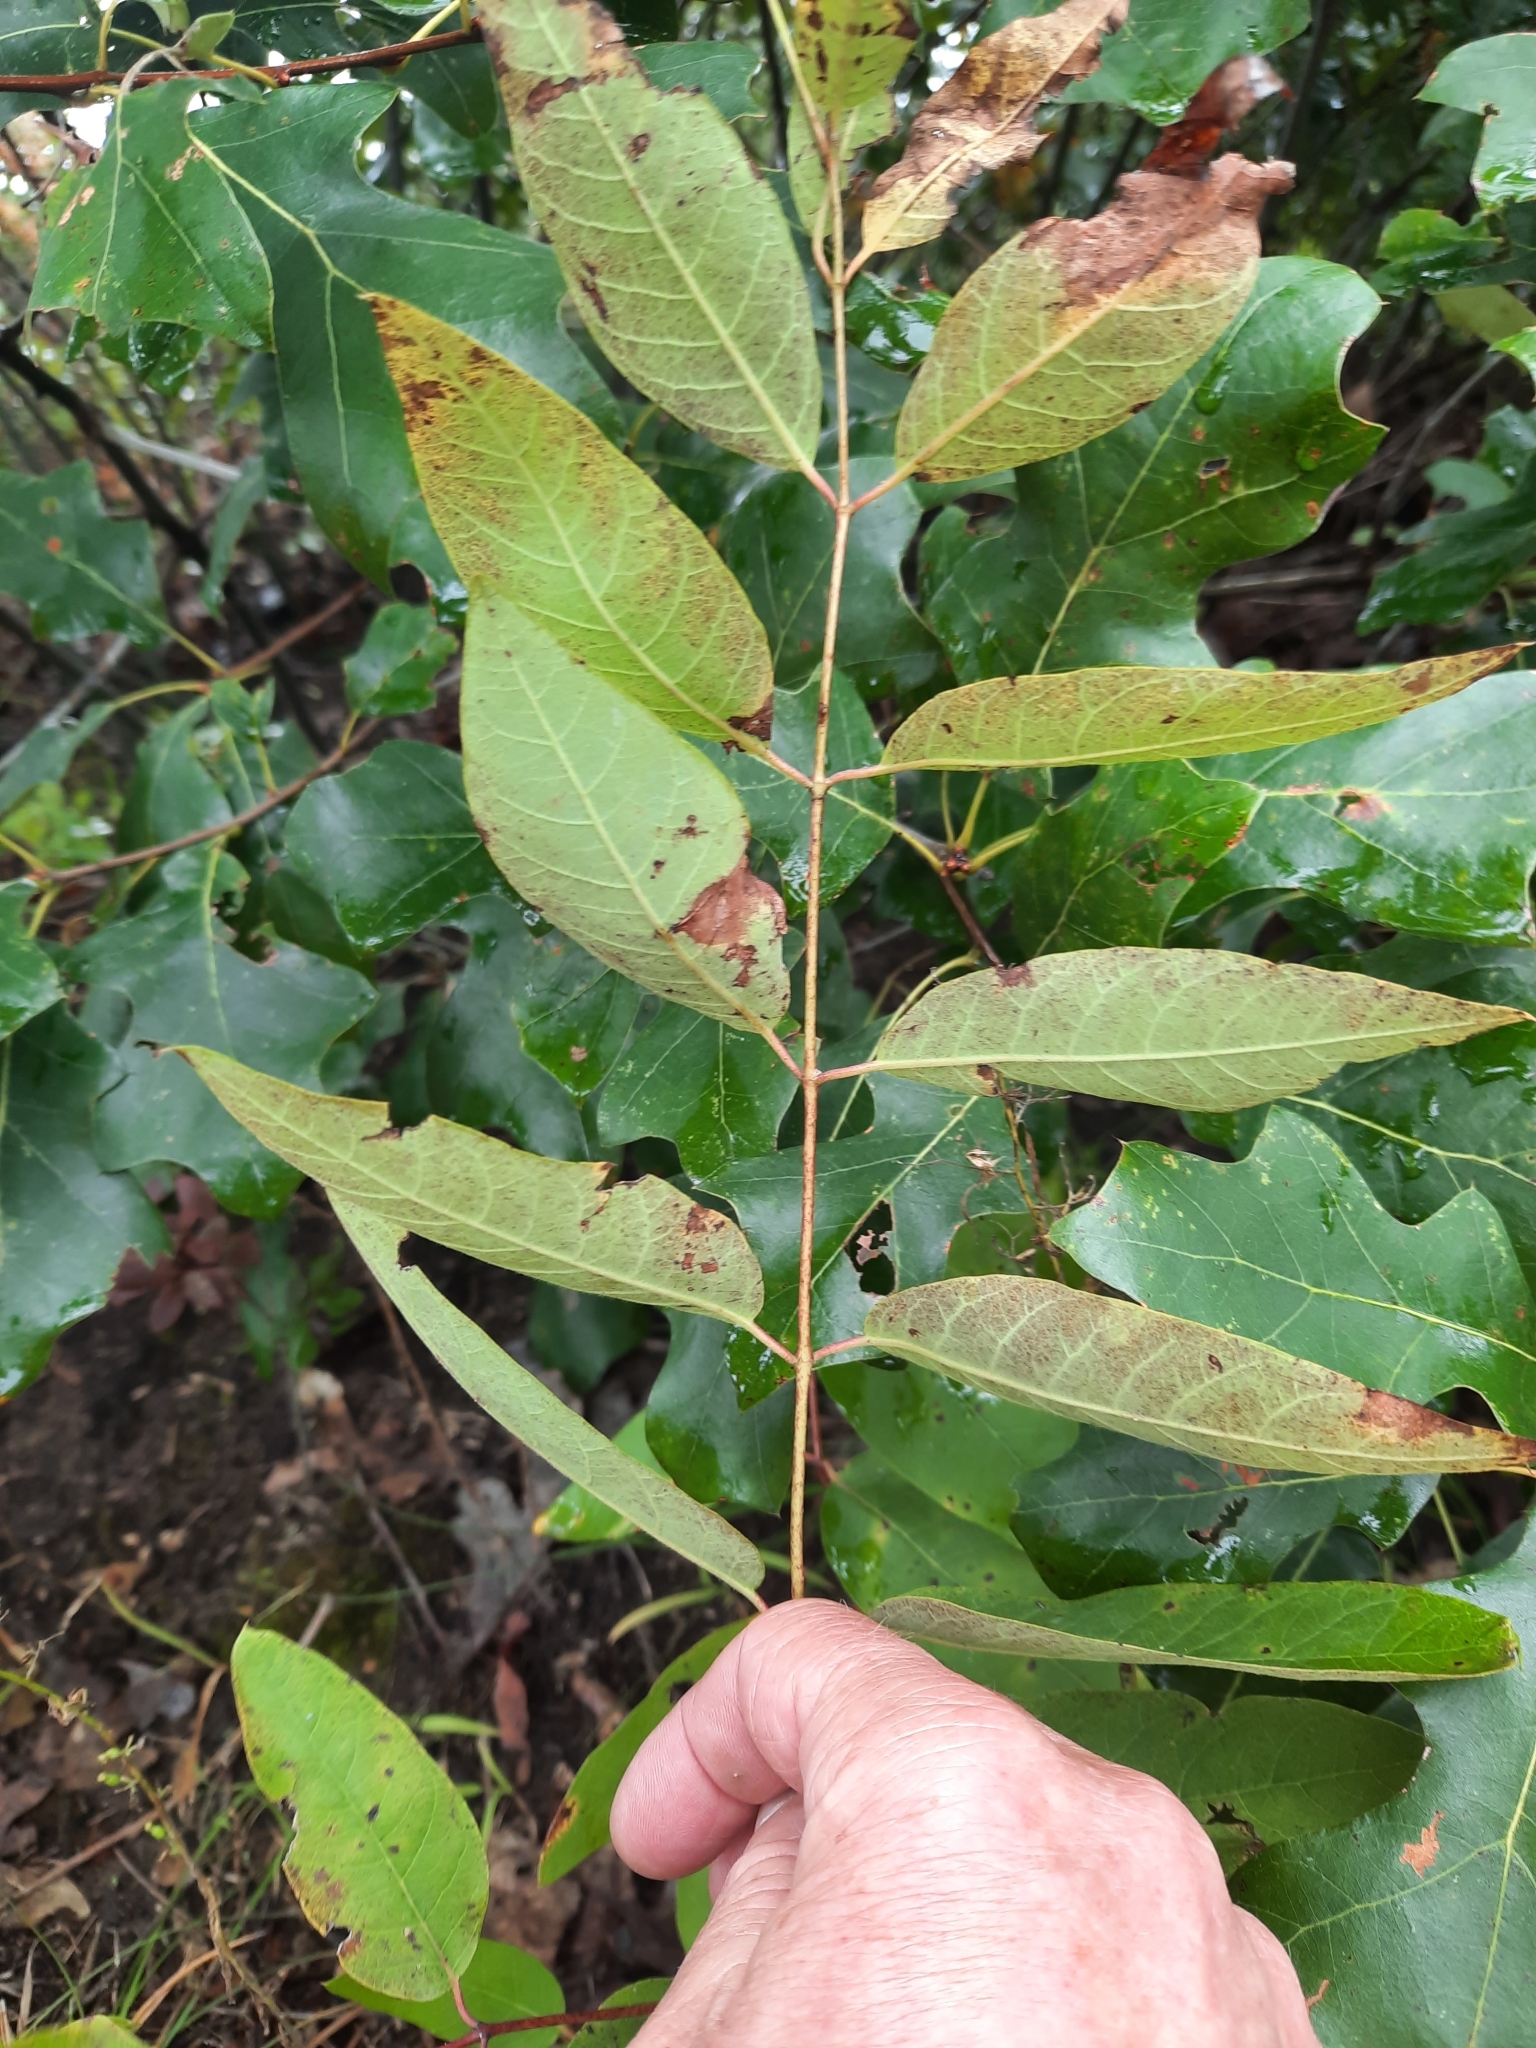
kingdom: Plantae
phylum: Tracheophyta
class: Magnoliopsida
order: Gentianales
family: Apocynaceae
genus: Apocynum
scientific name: Apocynum cannabinum
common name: Hemp dogbane
